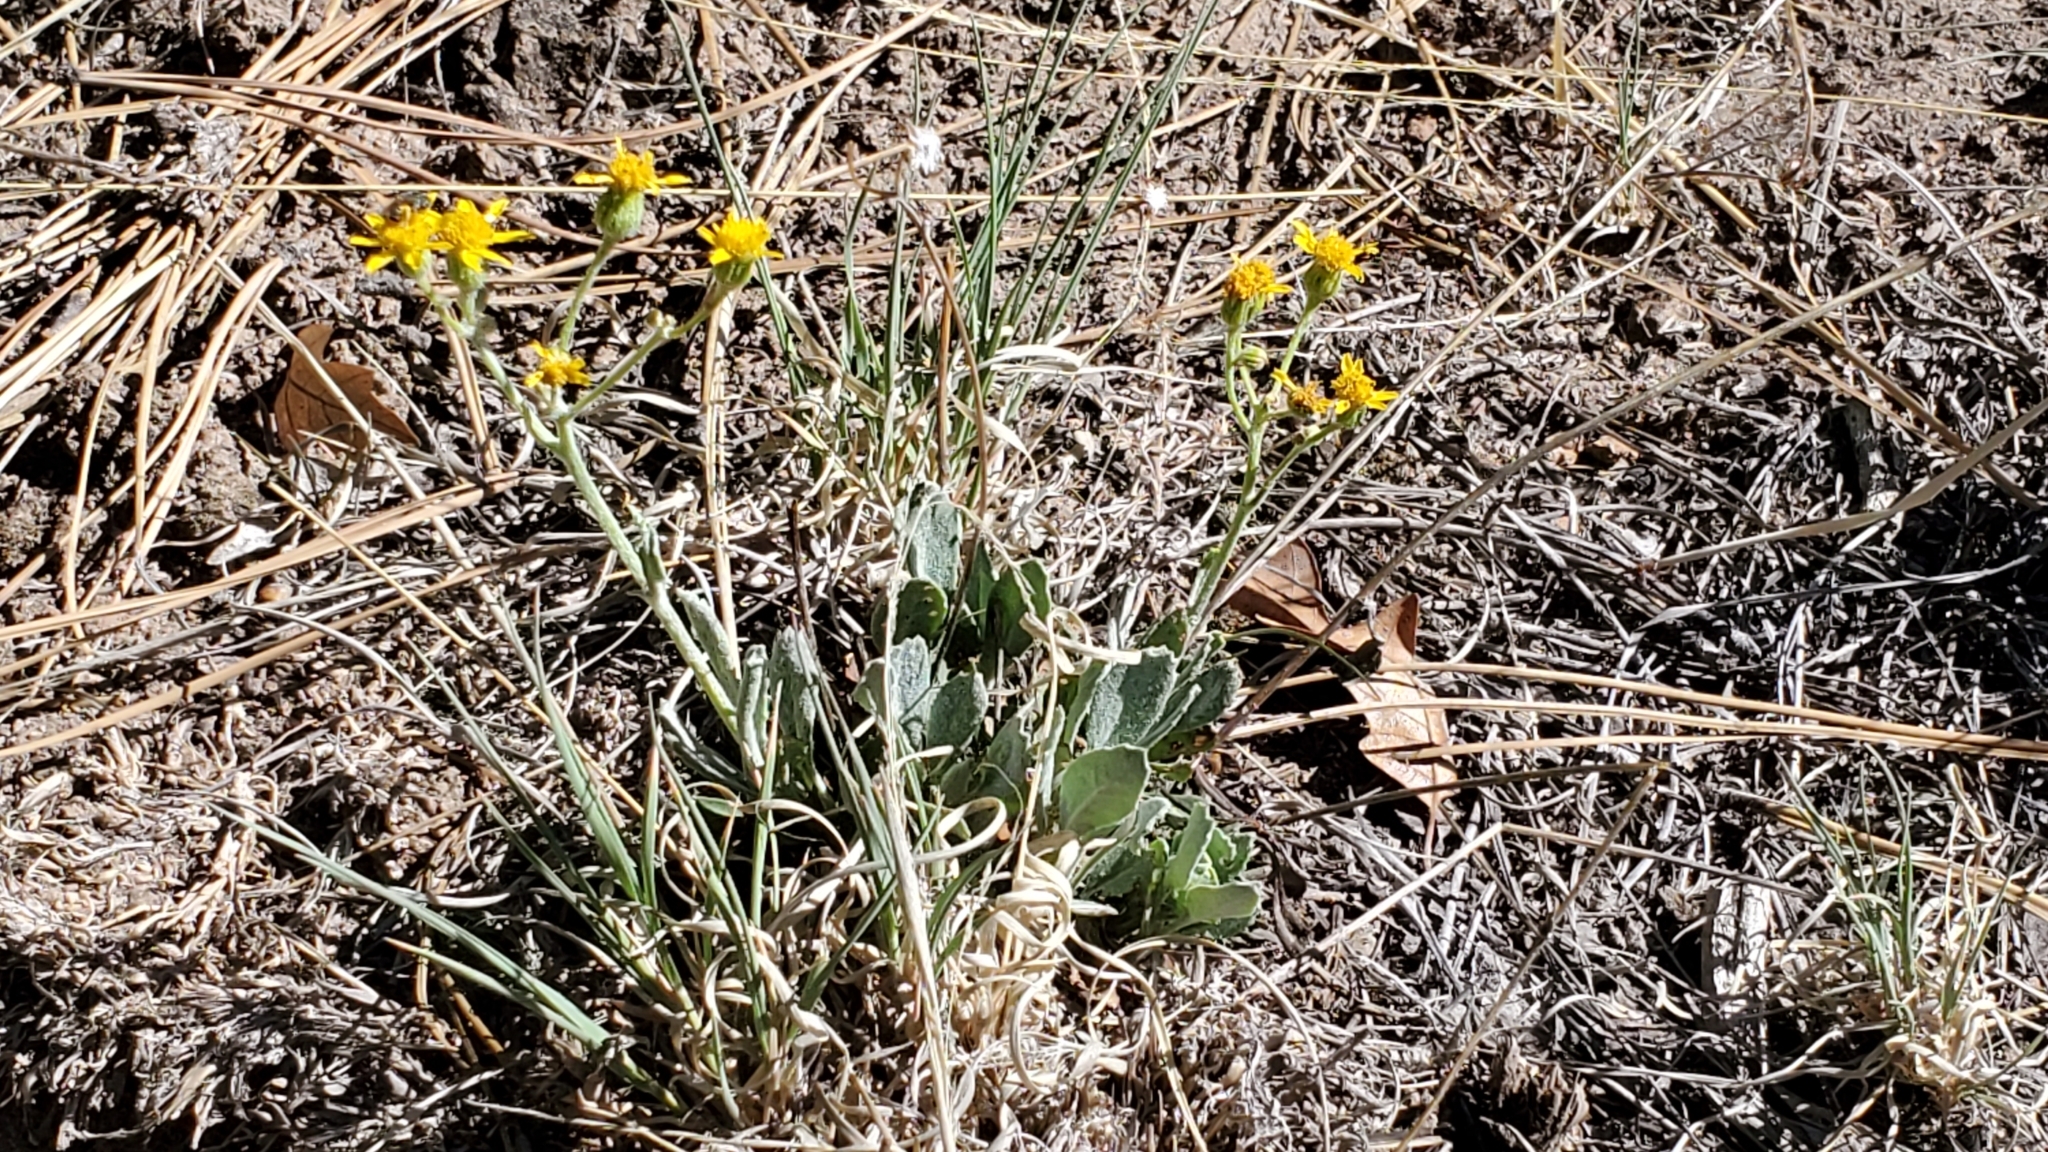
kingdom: Plantae
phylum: Tracheophyta
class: Magnoliopsida
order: Asterales
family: Asteraceae
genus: Packera
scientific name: Packera neomexicana
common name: New mexico butterweed
